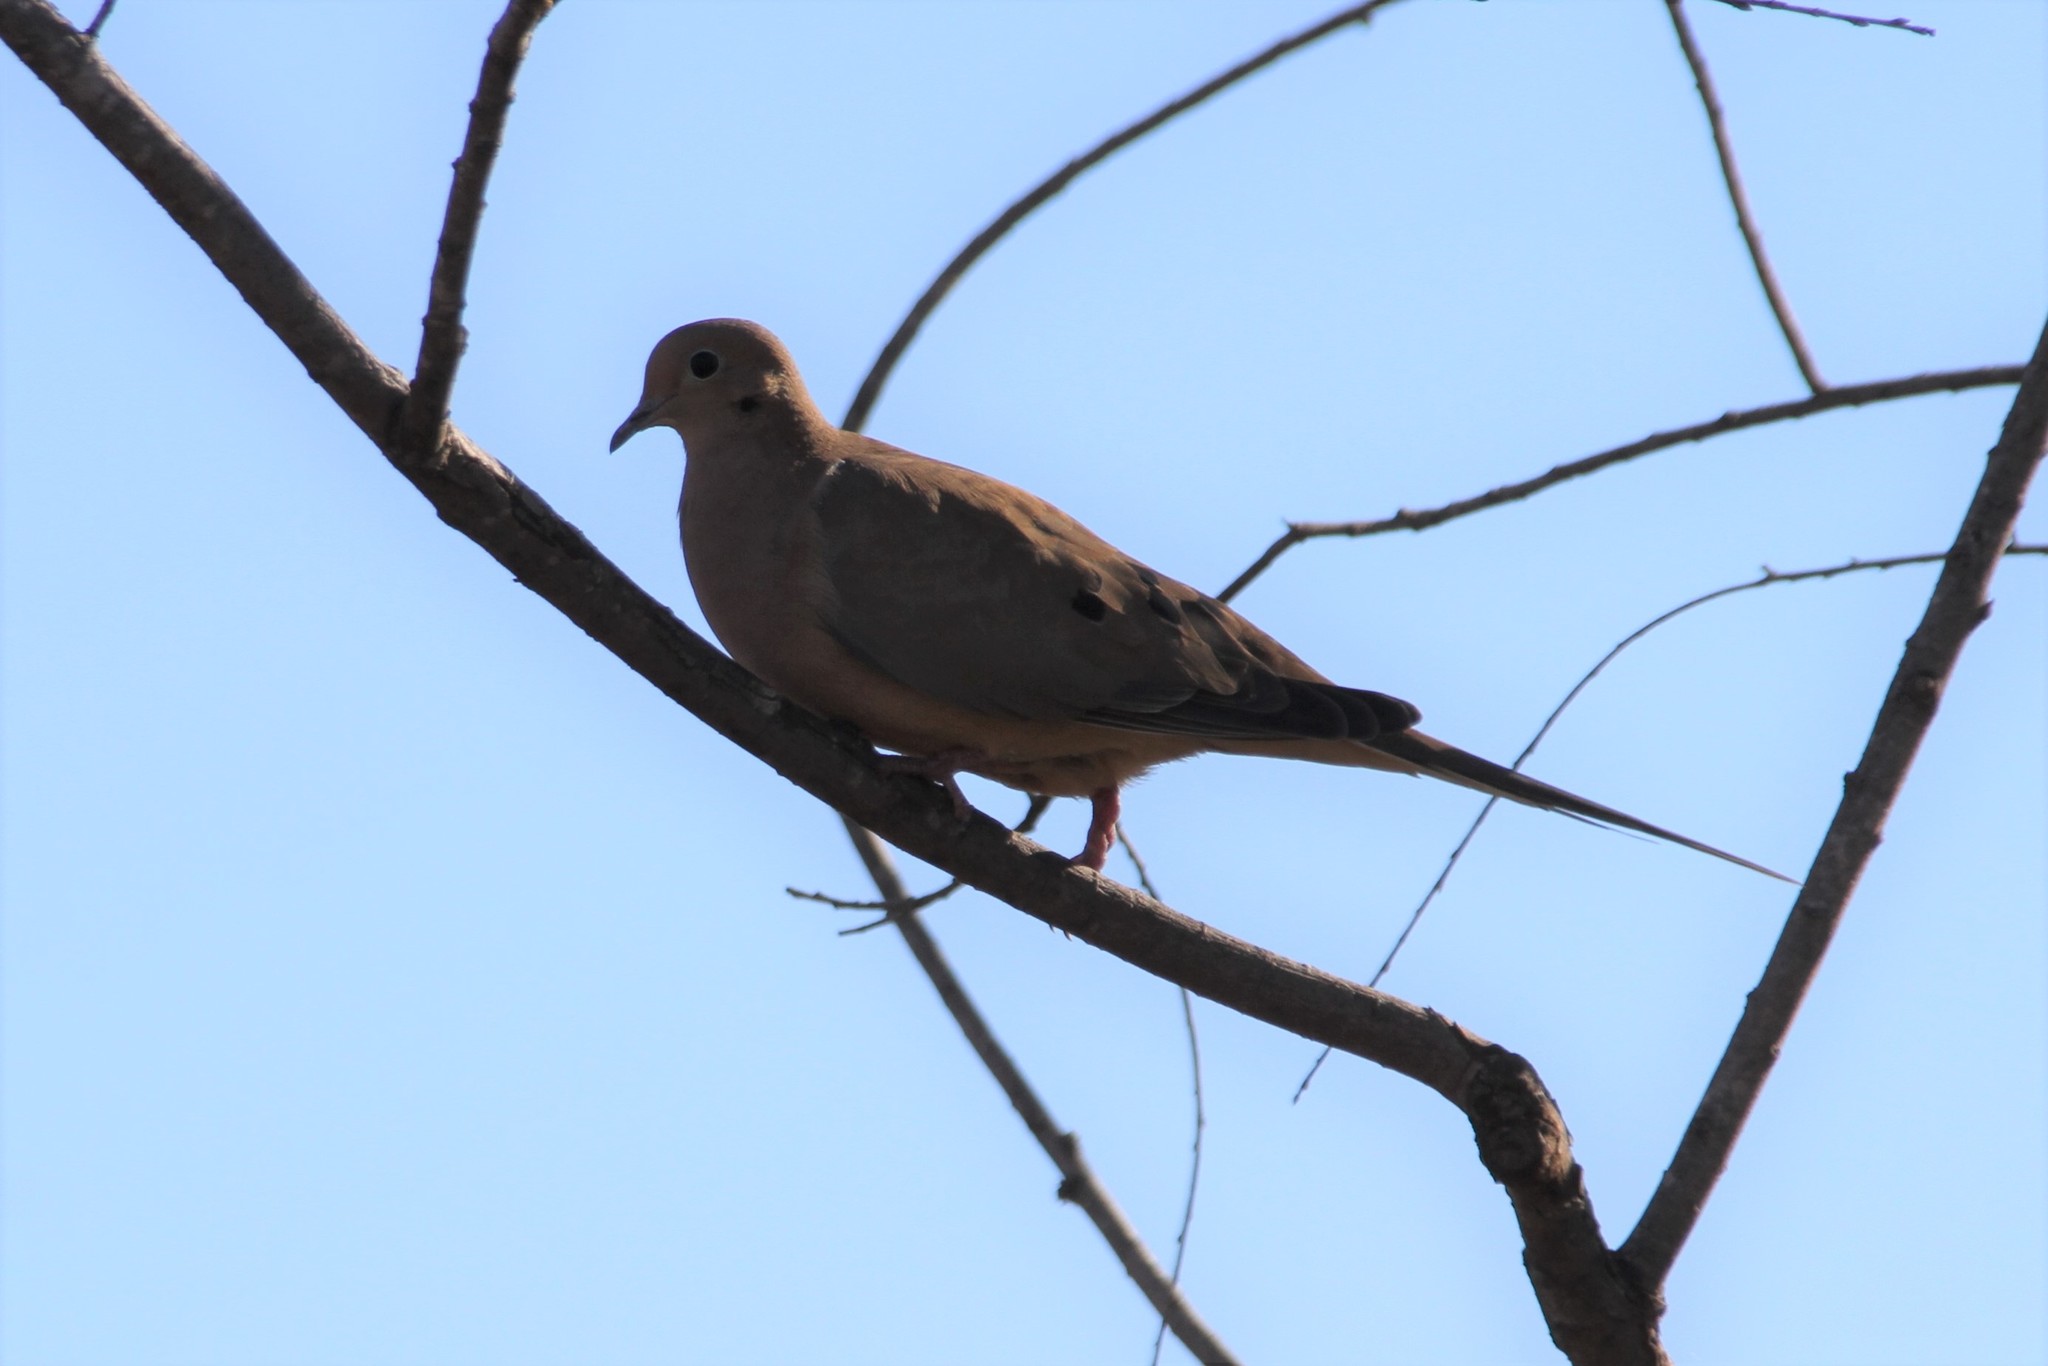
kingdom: Animalia
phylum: Chordata
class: Aves
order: Columbiformes
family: Columbidae
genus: Zenaida
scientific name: Zenaida macroura
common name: Mourning dove
